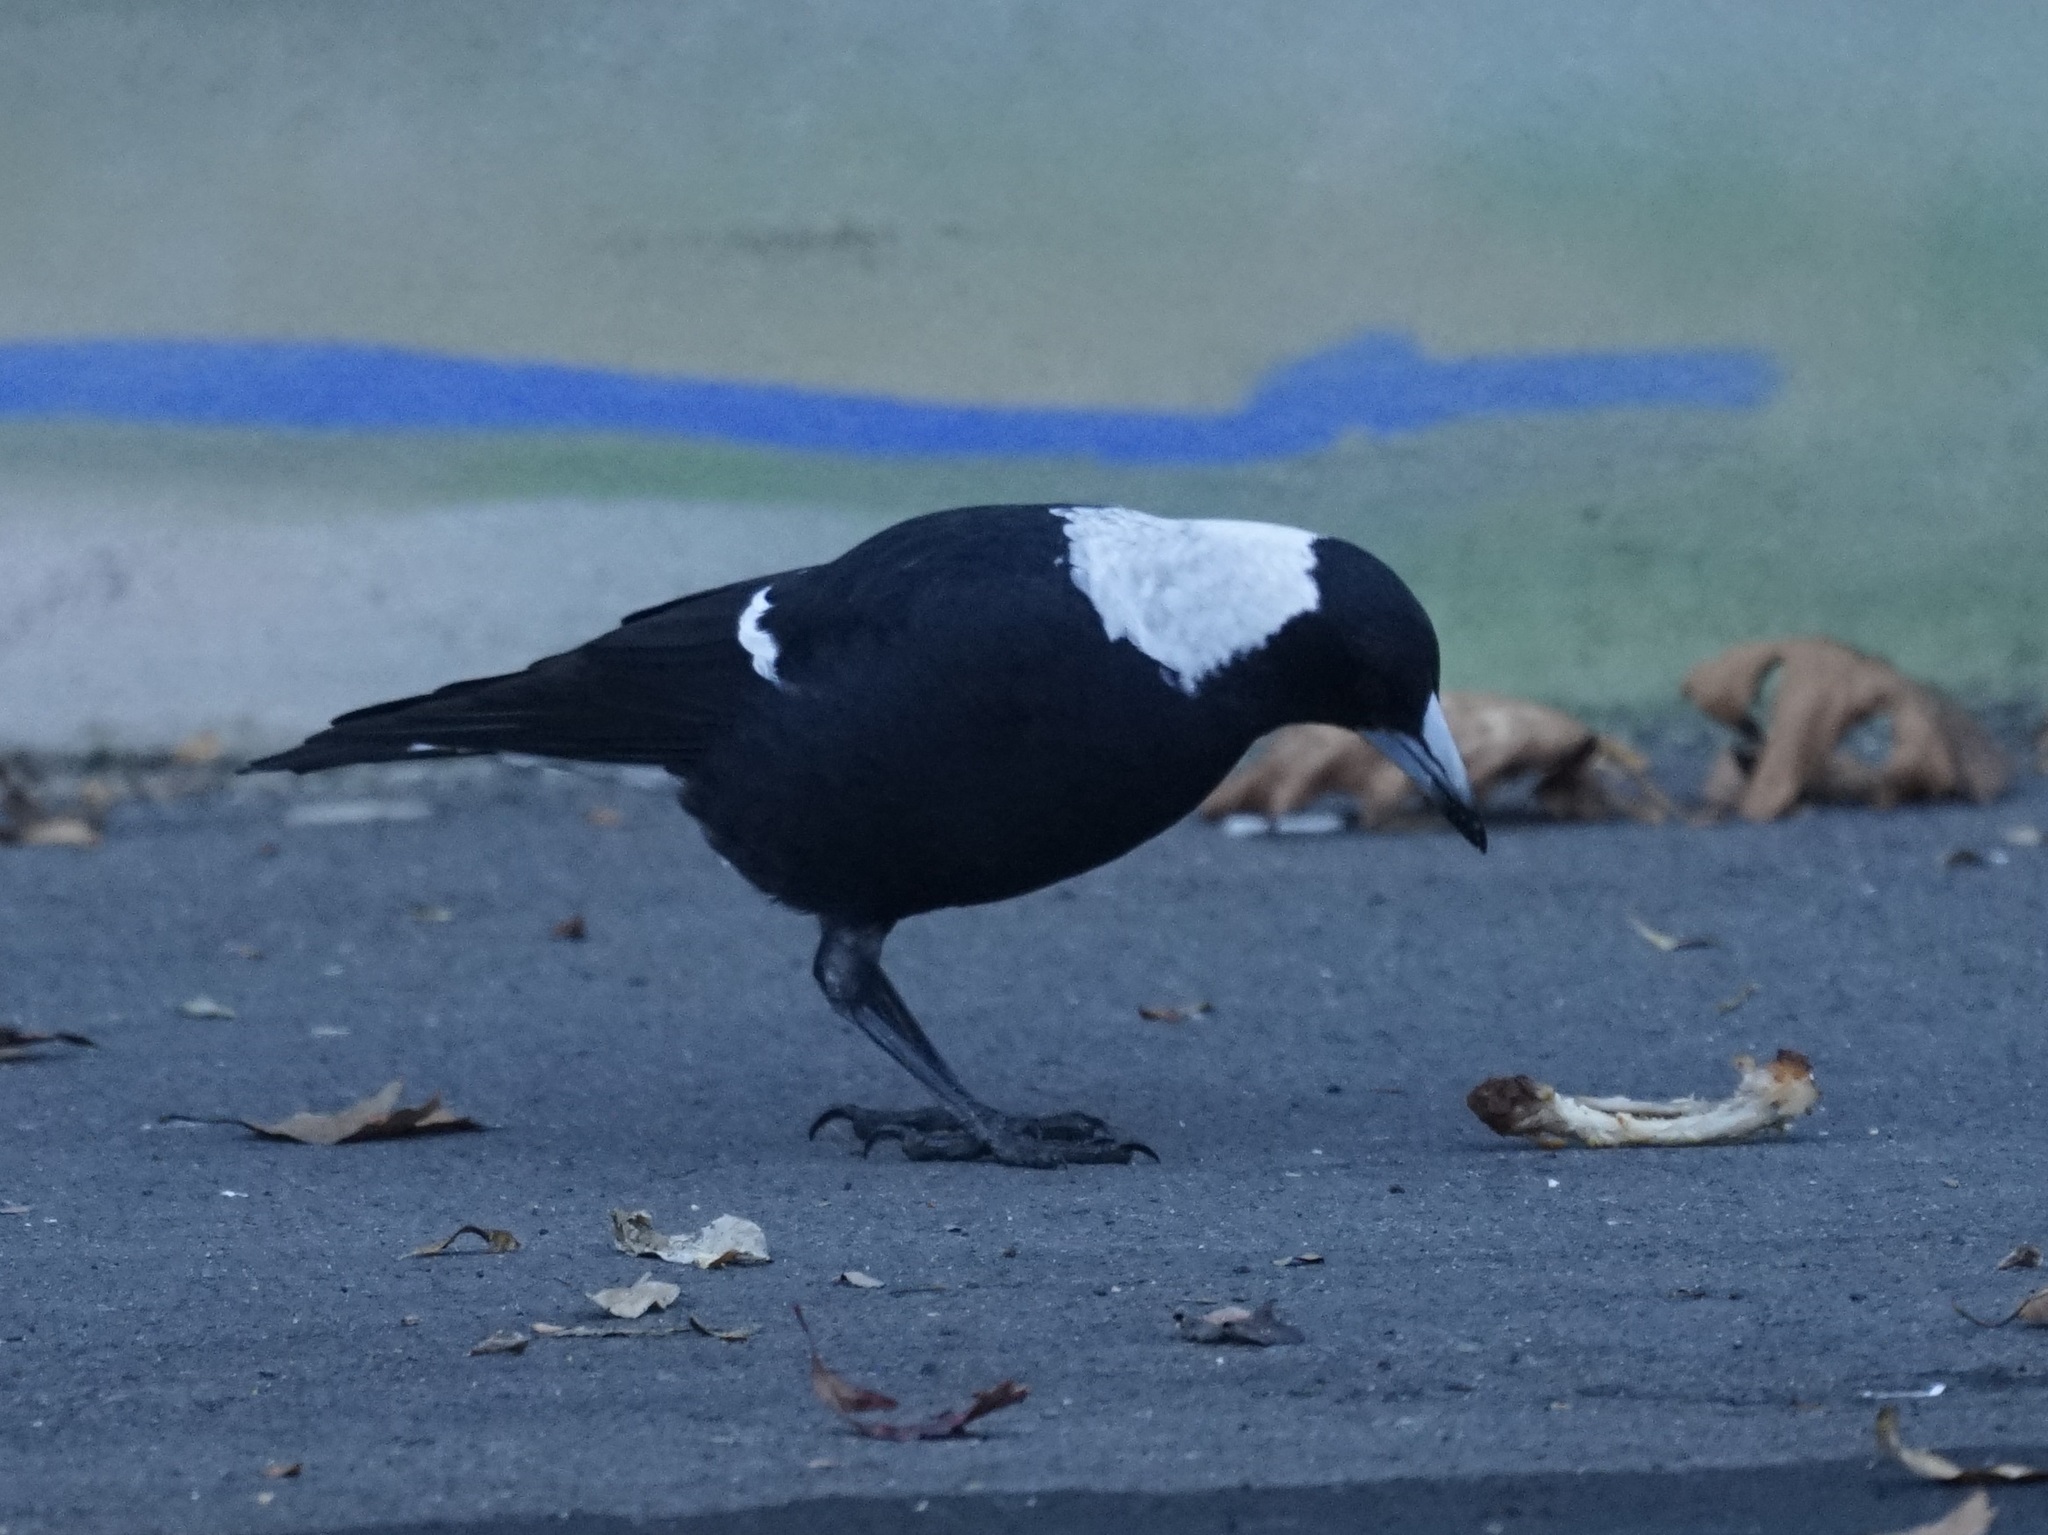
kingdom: Animalia
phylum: Chordata
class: Aves
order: Passeriformes
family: Cracticidae
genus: Gymnorhina
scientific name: Gymnorhina tibicen
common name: Australian magpie
